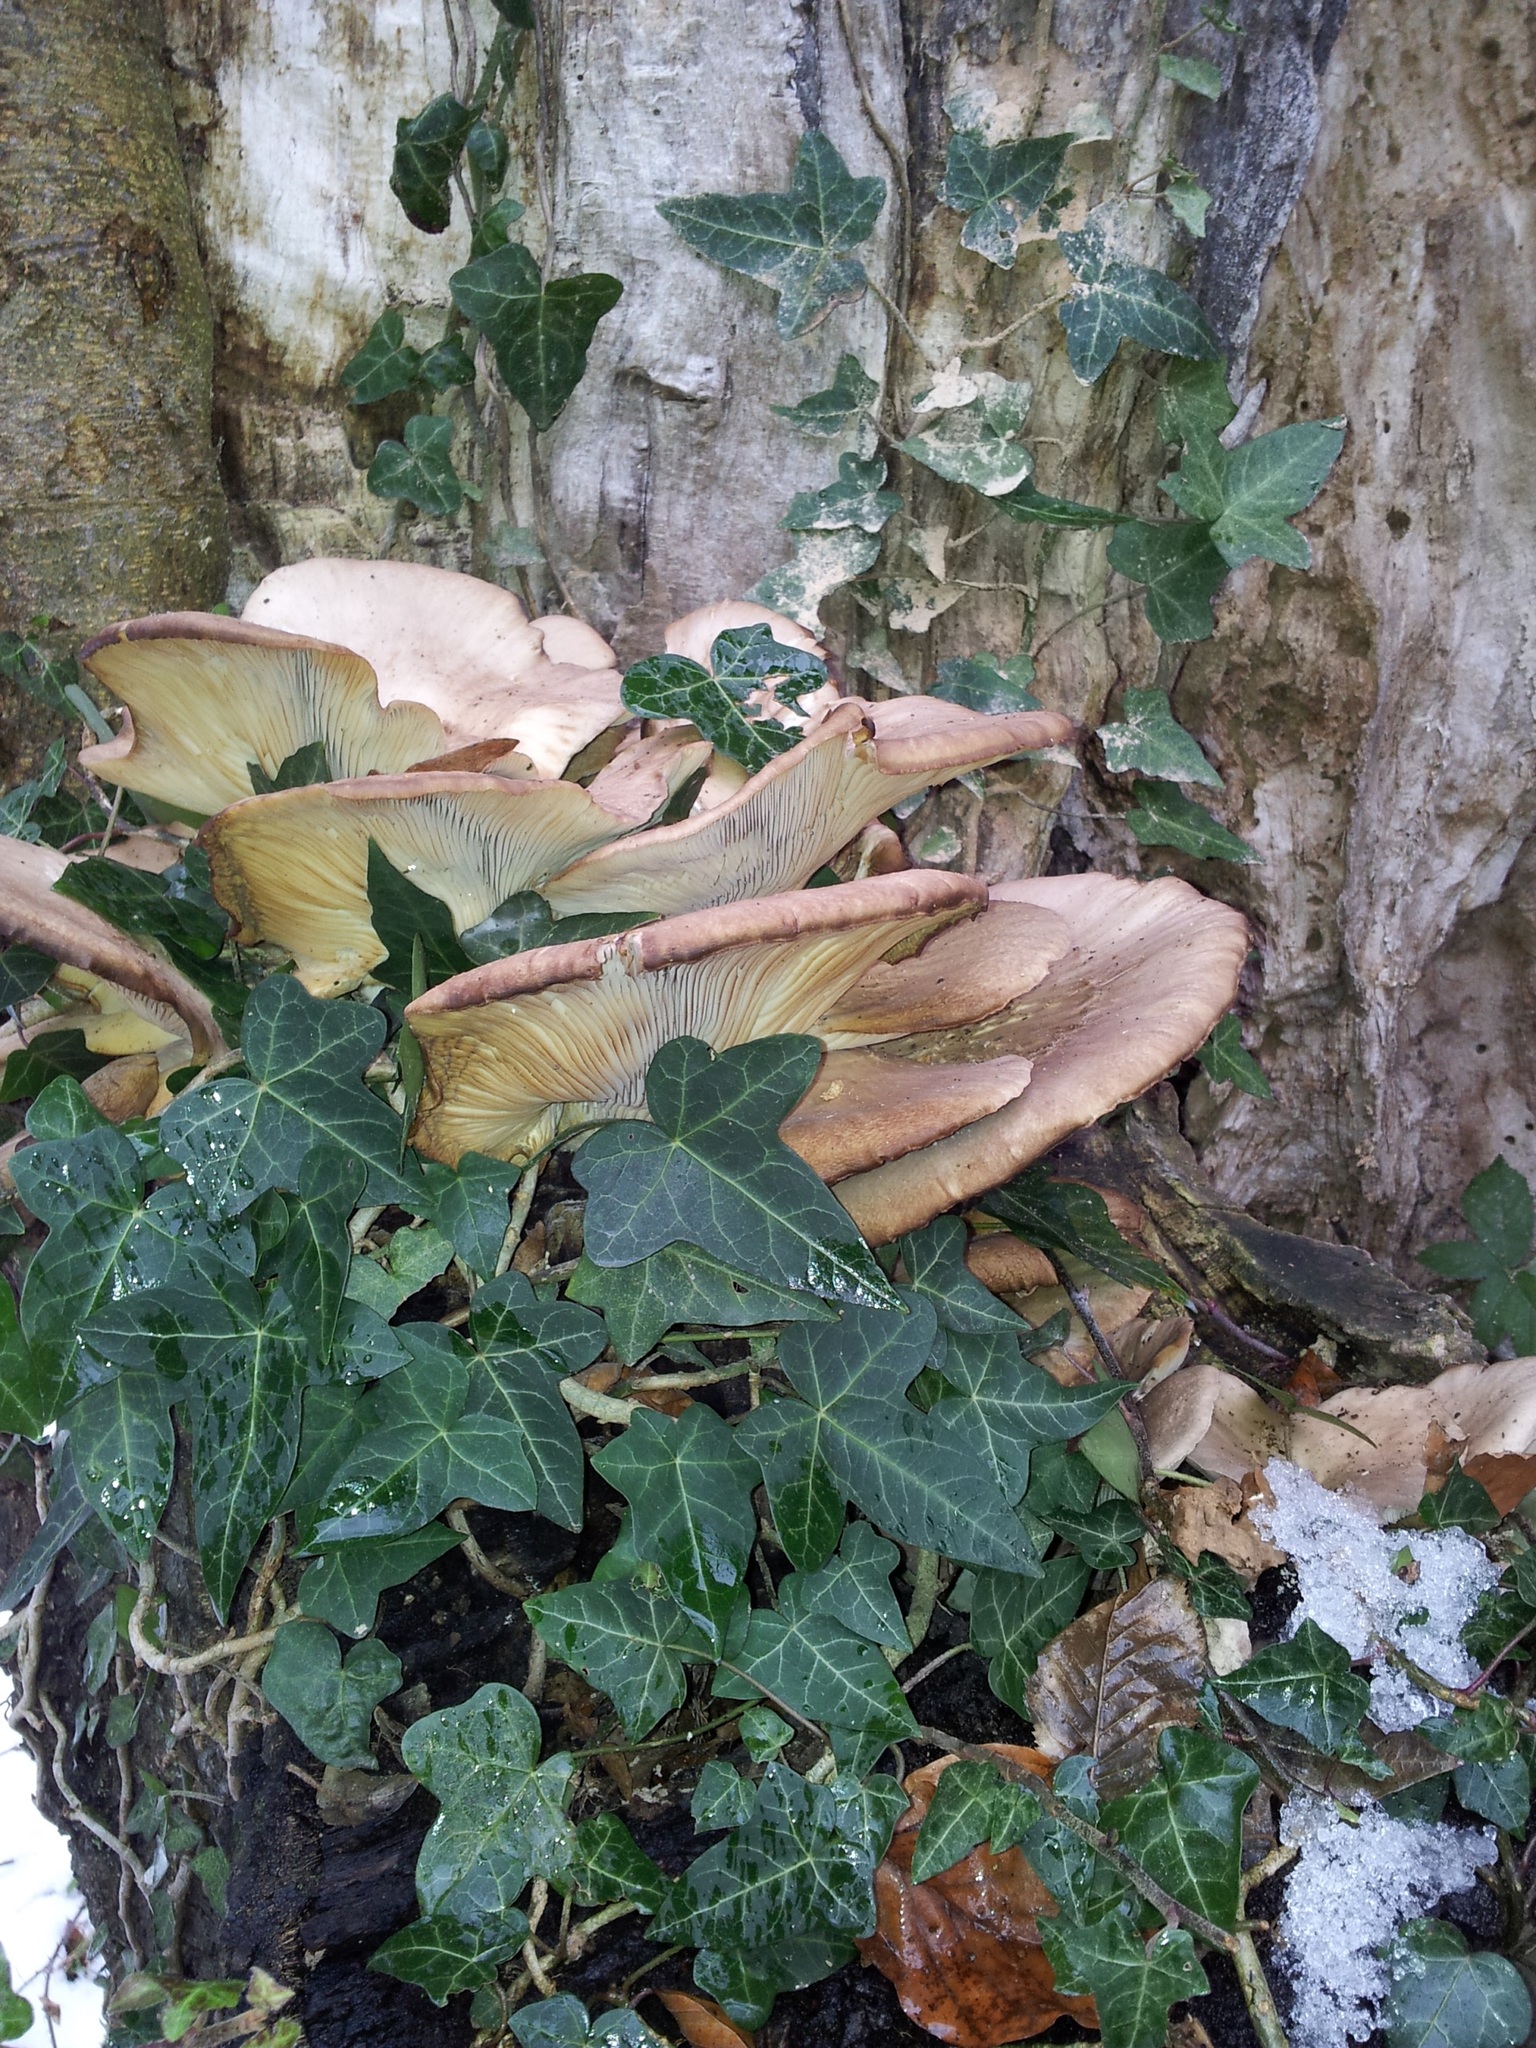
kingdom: Fungi
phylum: Basidiomycota
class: Agaricomycetes
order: Agaricales
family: Pleurotaceae
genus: Pleurotus
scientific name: Pleurotus ostreatus
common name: Oyster mushroom
